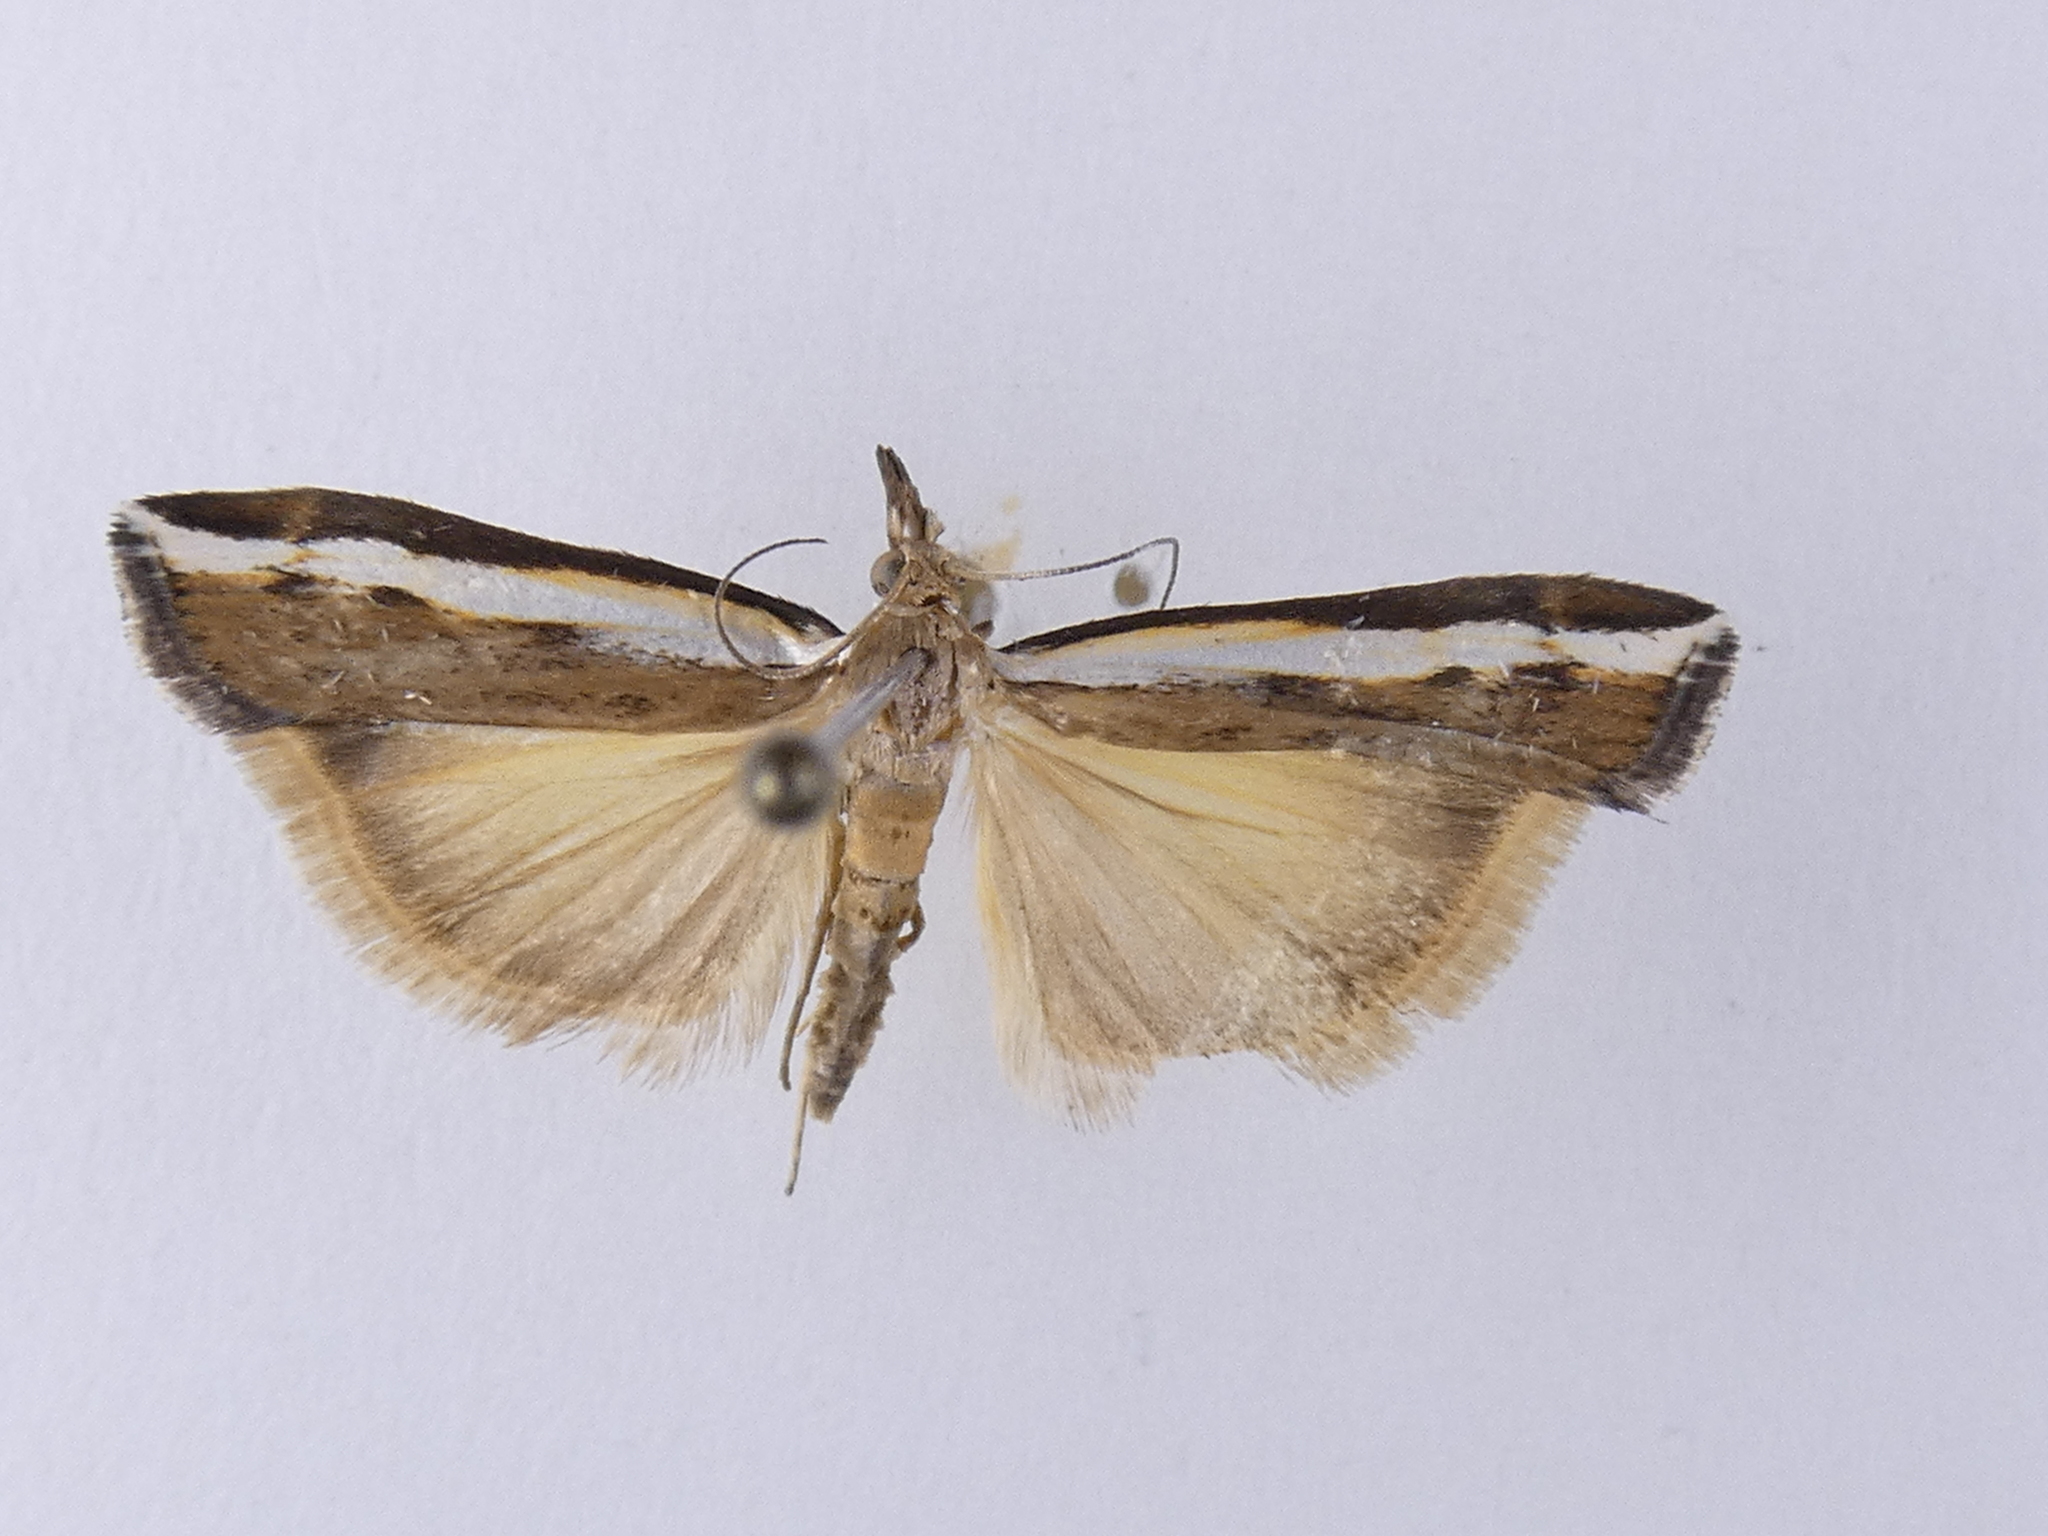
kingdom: Animalia
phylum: Arthropoda
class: Insecta
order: Lepidoptera
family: Crambidae
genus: Orocrambus
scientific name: Orocrambus flexuosellus
